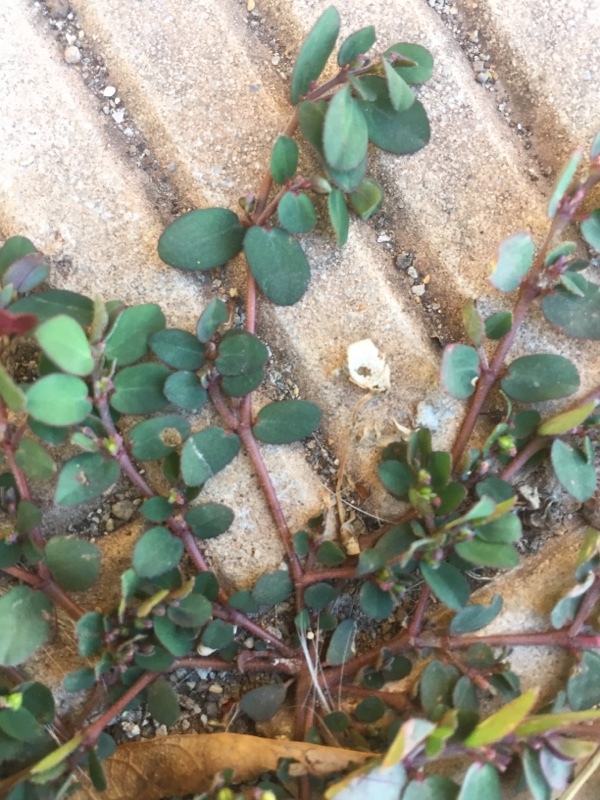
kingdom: Plantae
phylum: Tracheophyta
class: Magnoliopsida
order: Malpighiales
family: Euphorbiaceae
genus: Euphorbia
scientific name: Euphorbia prostrata
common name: Prostrate sandmat
